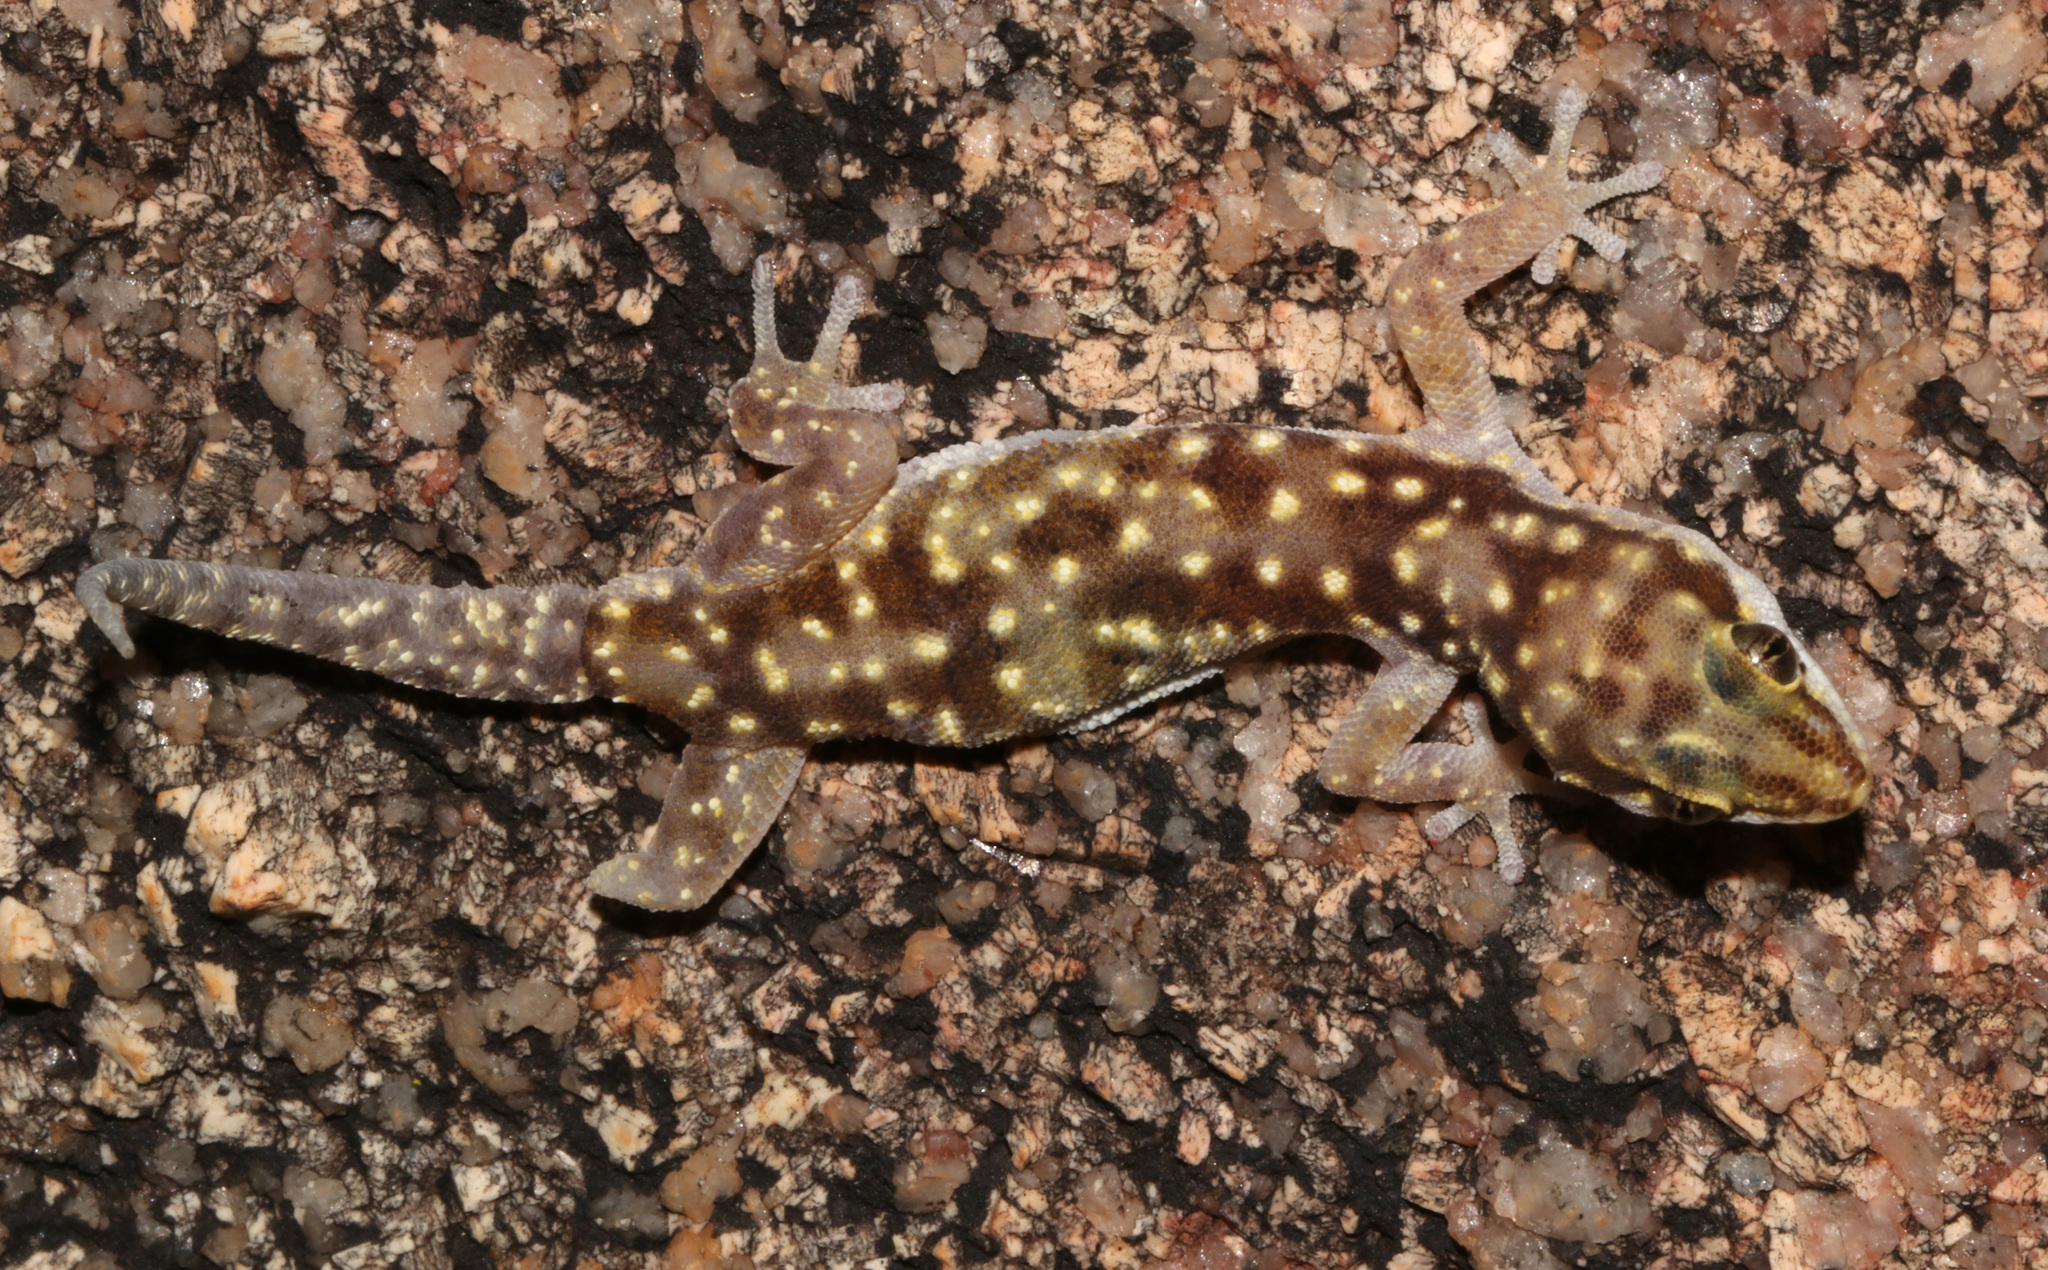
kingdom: Animalia
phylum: Chordata
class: Squamata
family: Gekkonidae
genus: Pachydactylus
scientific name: Pachydactylus bicolor
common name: Two-colored thick-toed gecko
